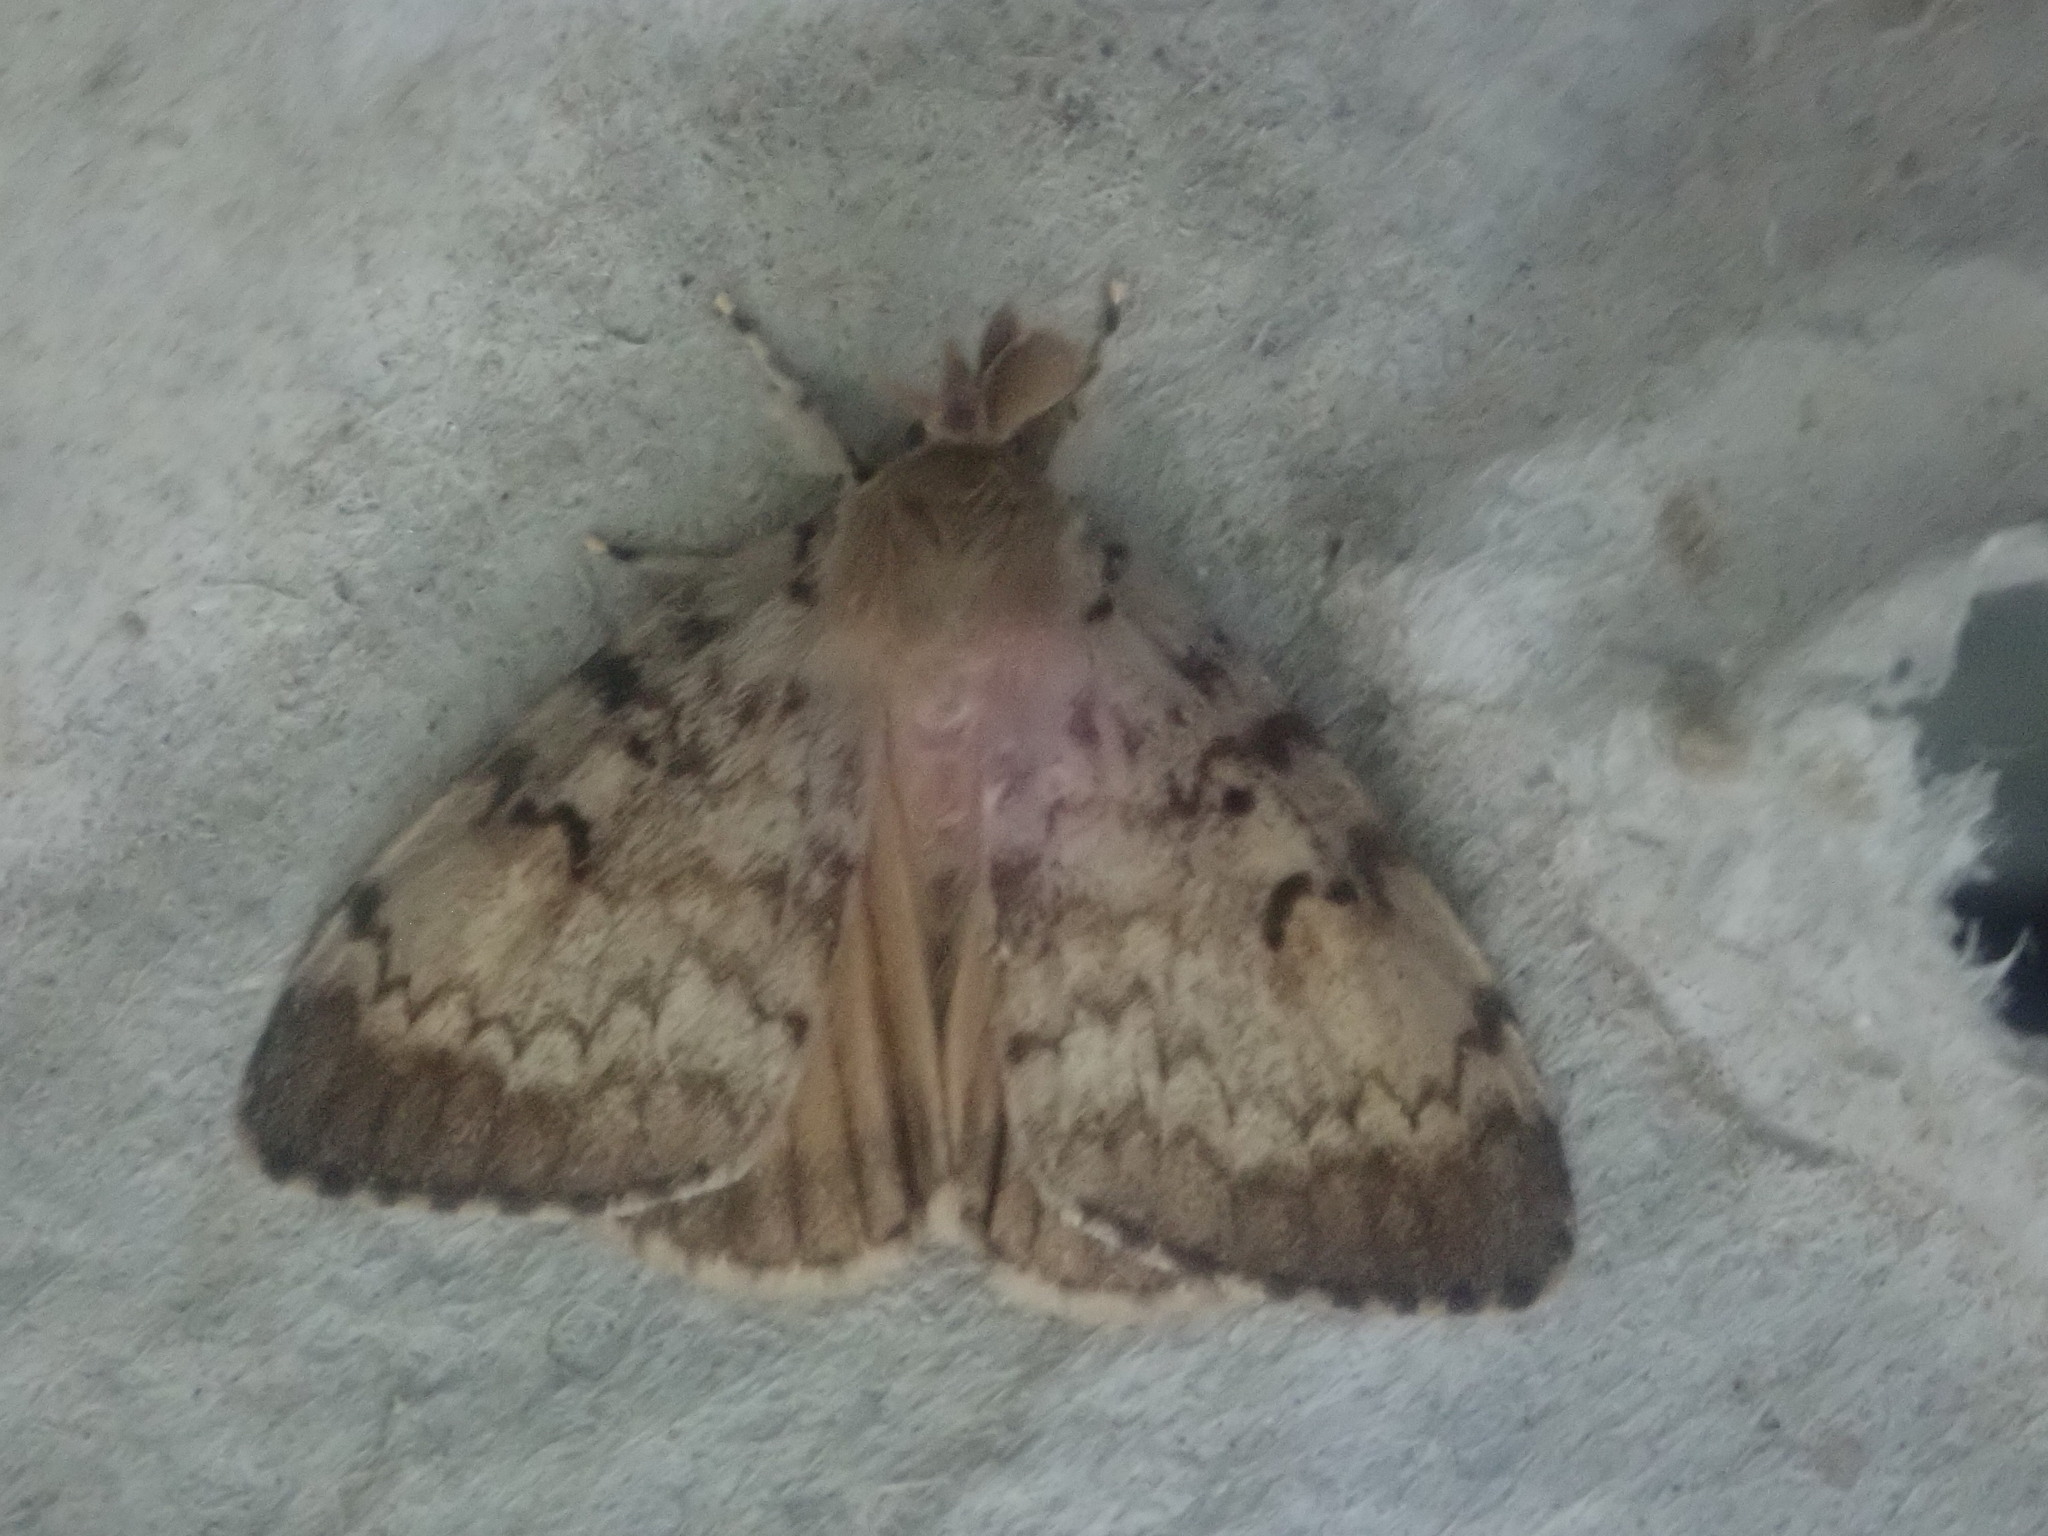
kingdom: Animalia
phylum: Arthropoda
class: Insecta
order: Lepidoptera
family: Erebidae
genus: Lymantria
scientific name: Lymantria dispar
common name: Gypsy moth
